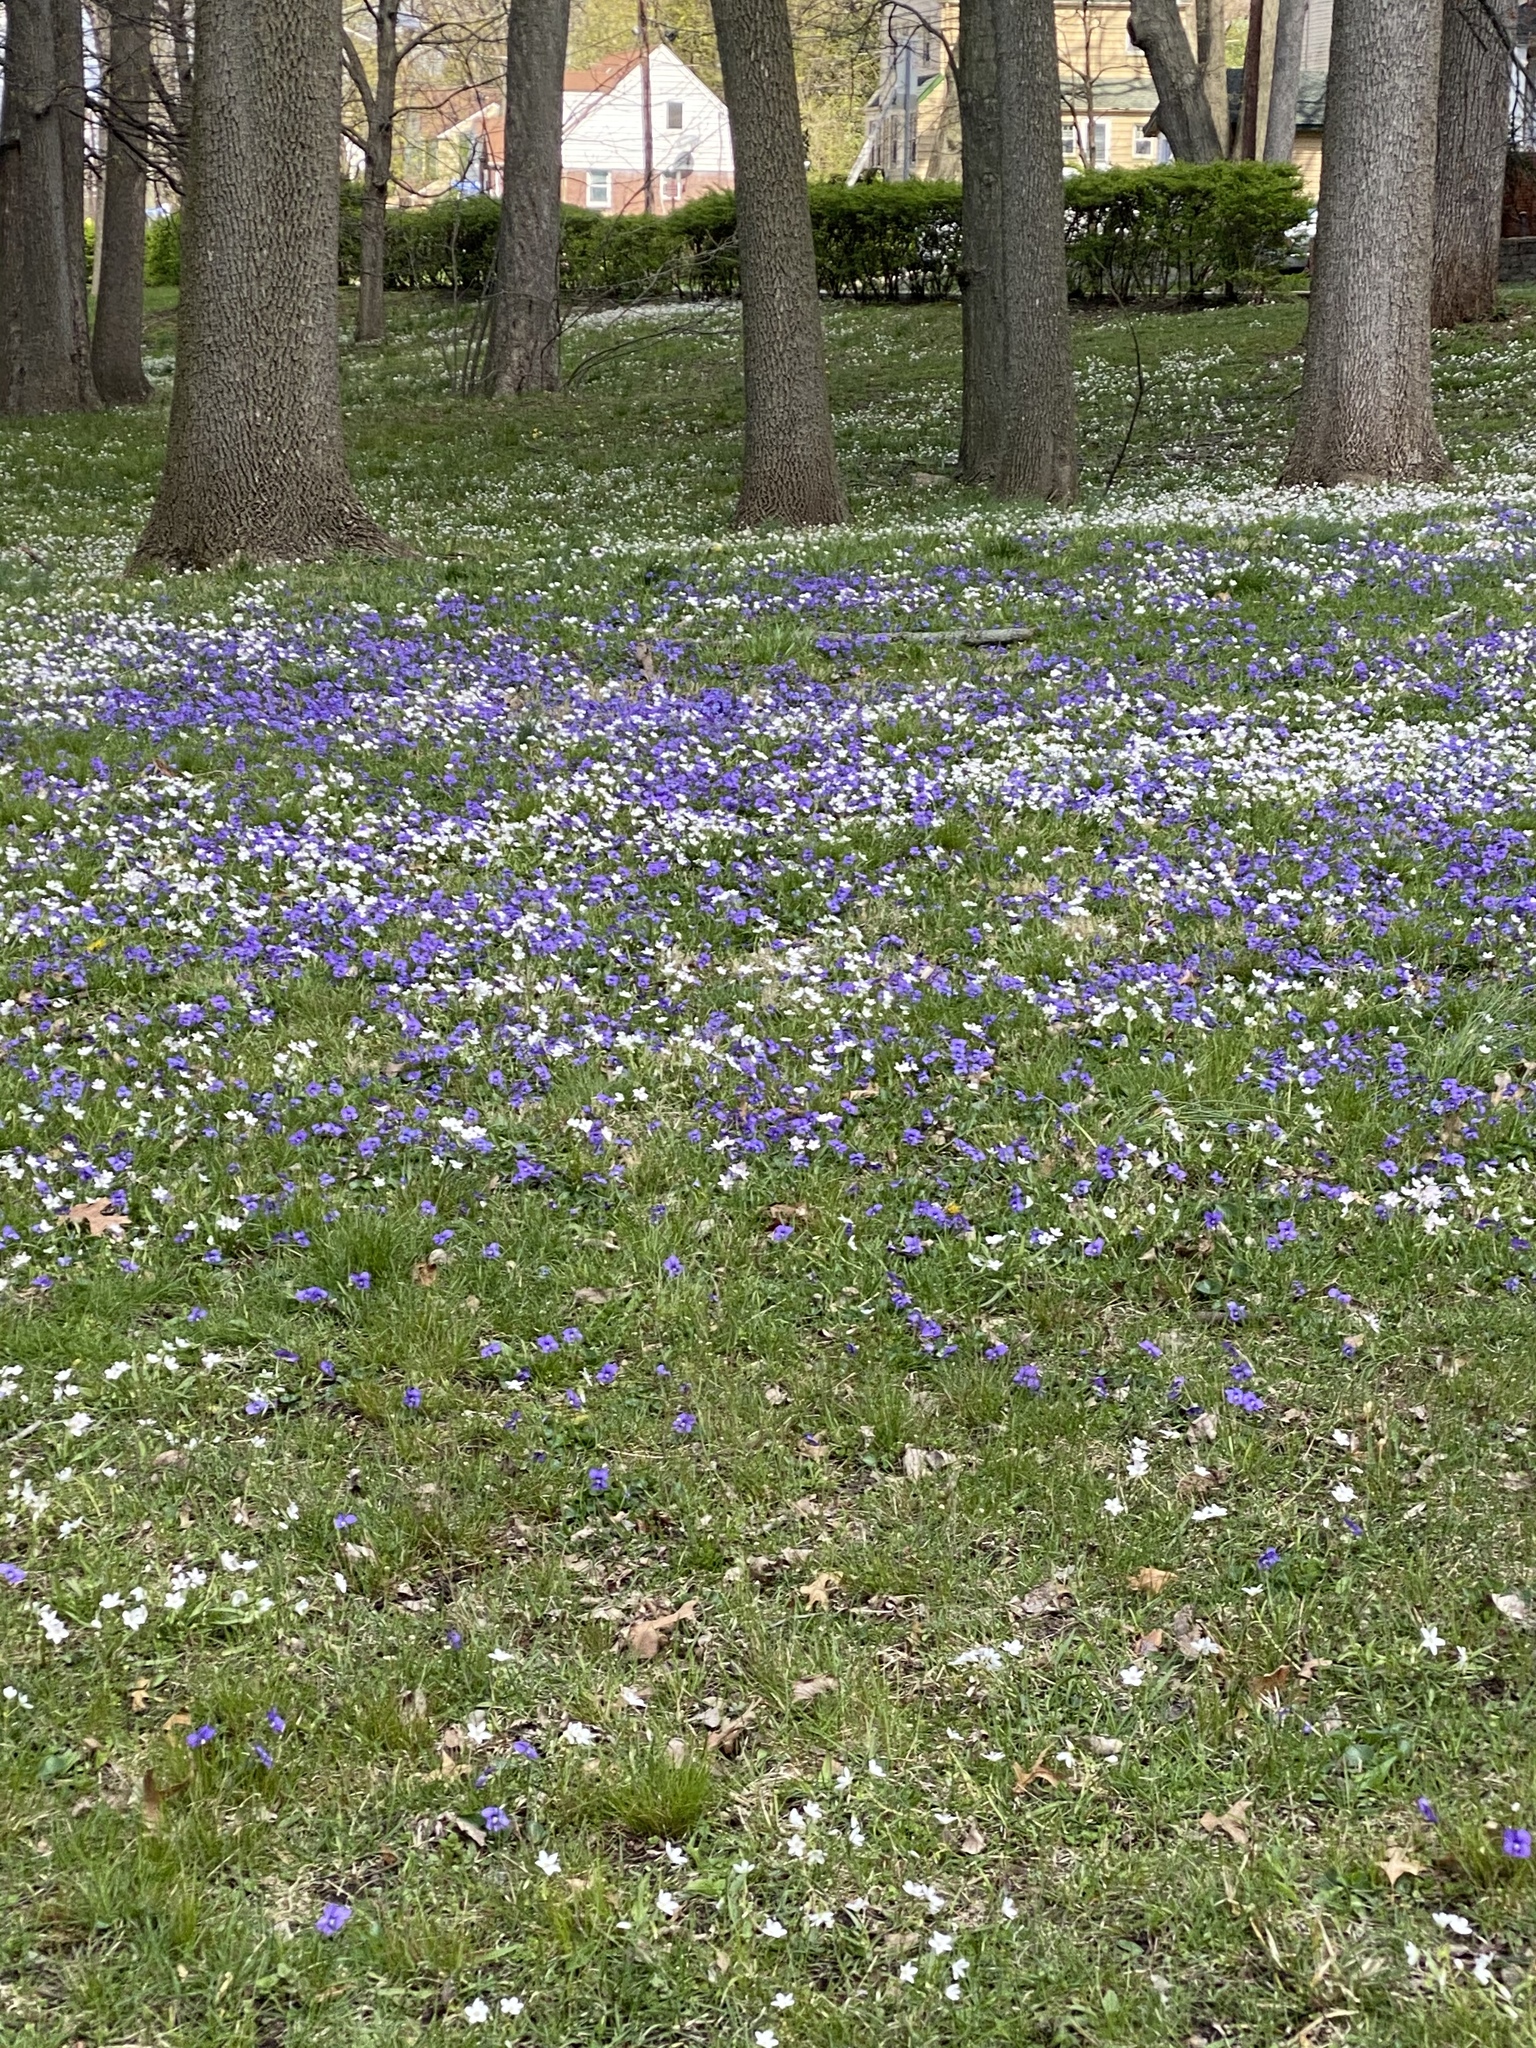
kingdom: Plantae
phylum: Tracheophyta
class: Magnoliopsida
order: Caryophyllales
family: Montiaceae
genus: Claytonia
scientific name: Claytonia virginica
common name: Virginia springbeauty
